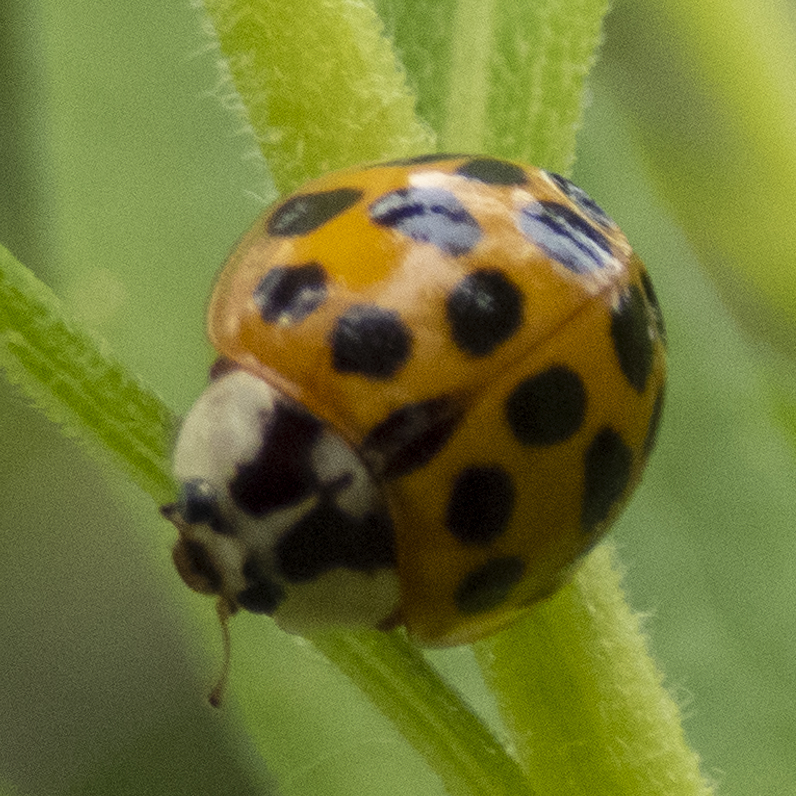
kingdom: Animalia
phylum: Arthropoda
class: Insecta
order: Coleoptera
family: Coccinellidae
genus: Harmonia
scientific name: Harmonia axyridis
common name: Harlequin ladybird
